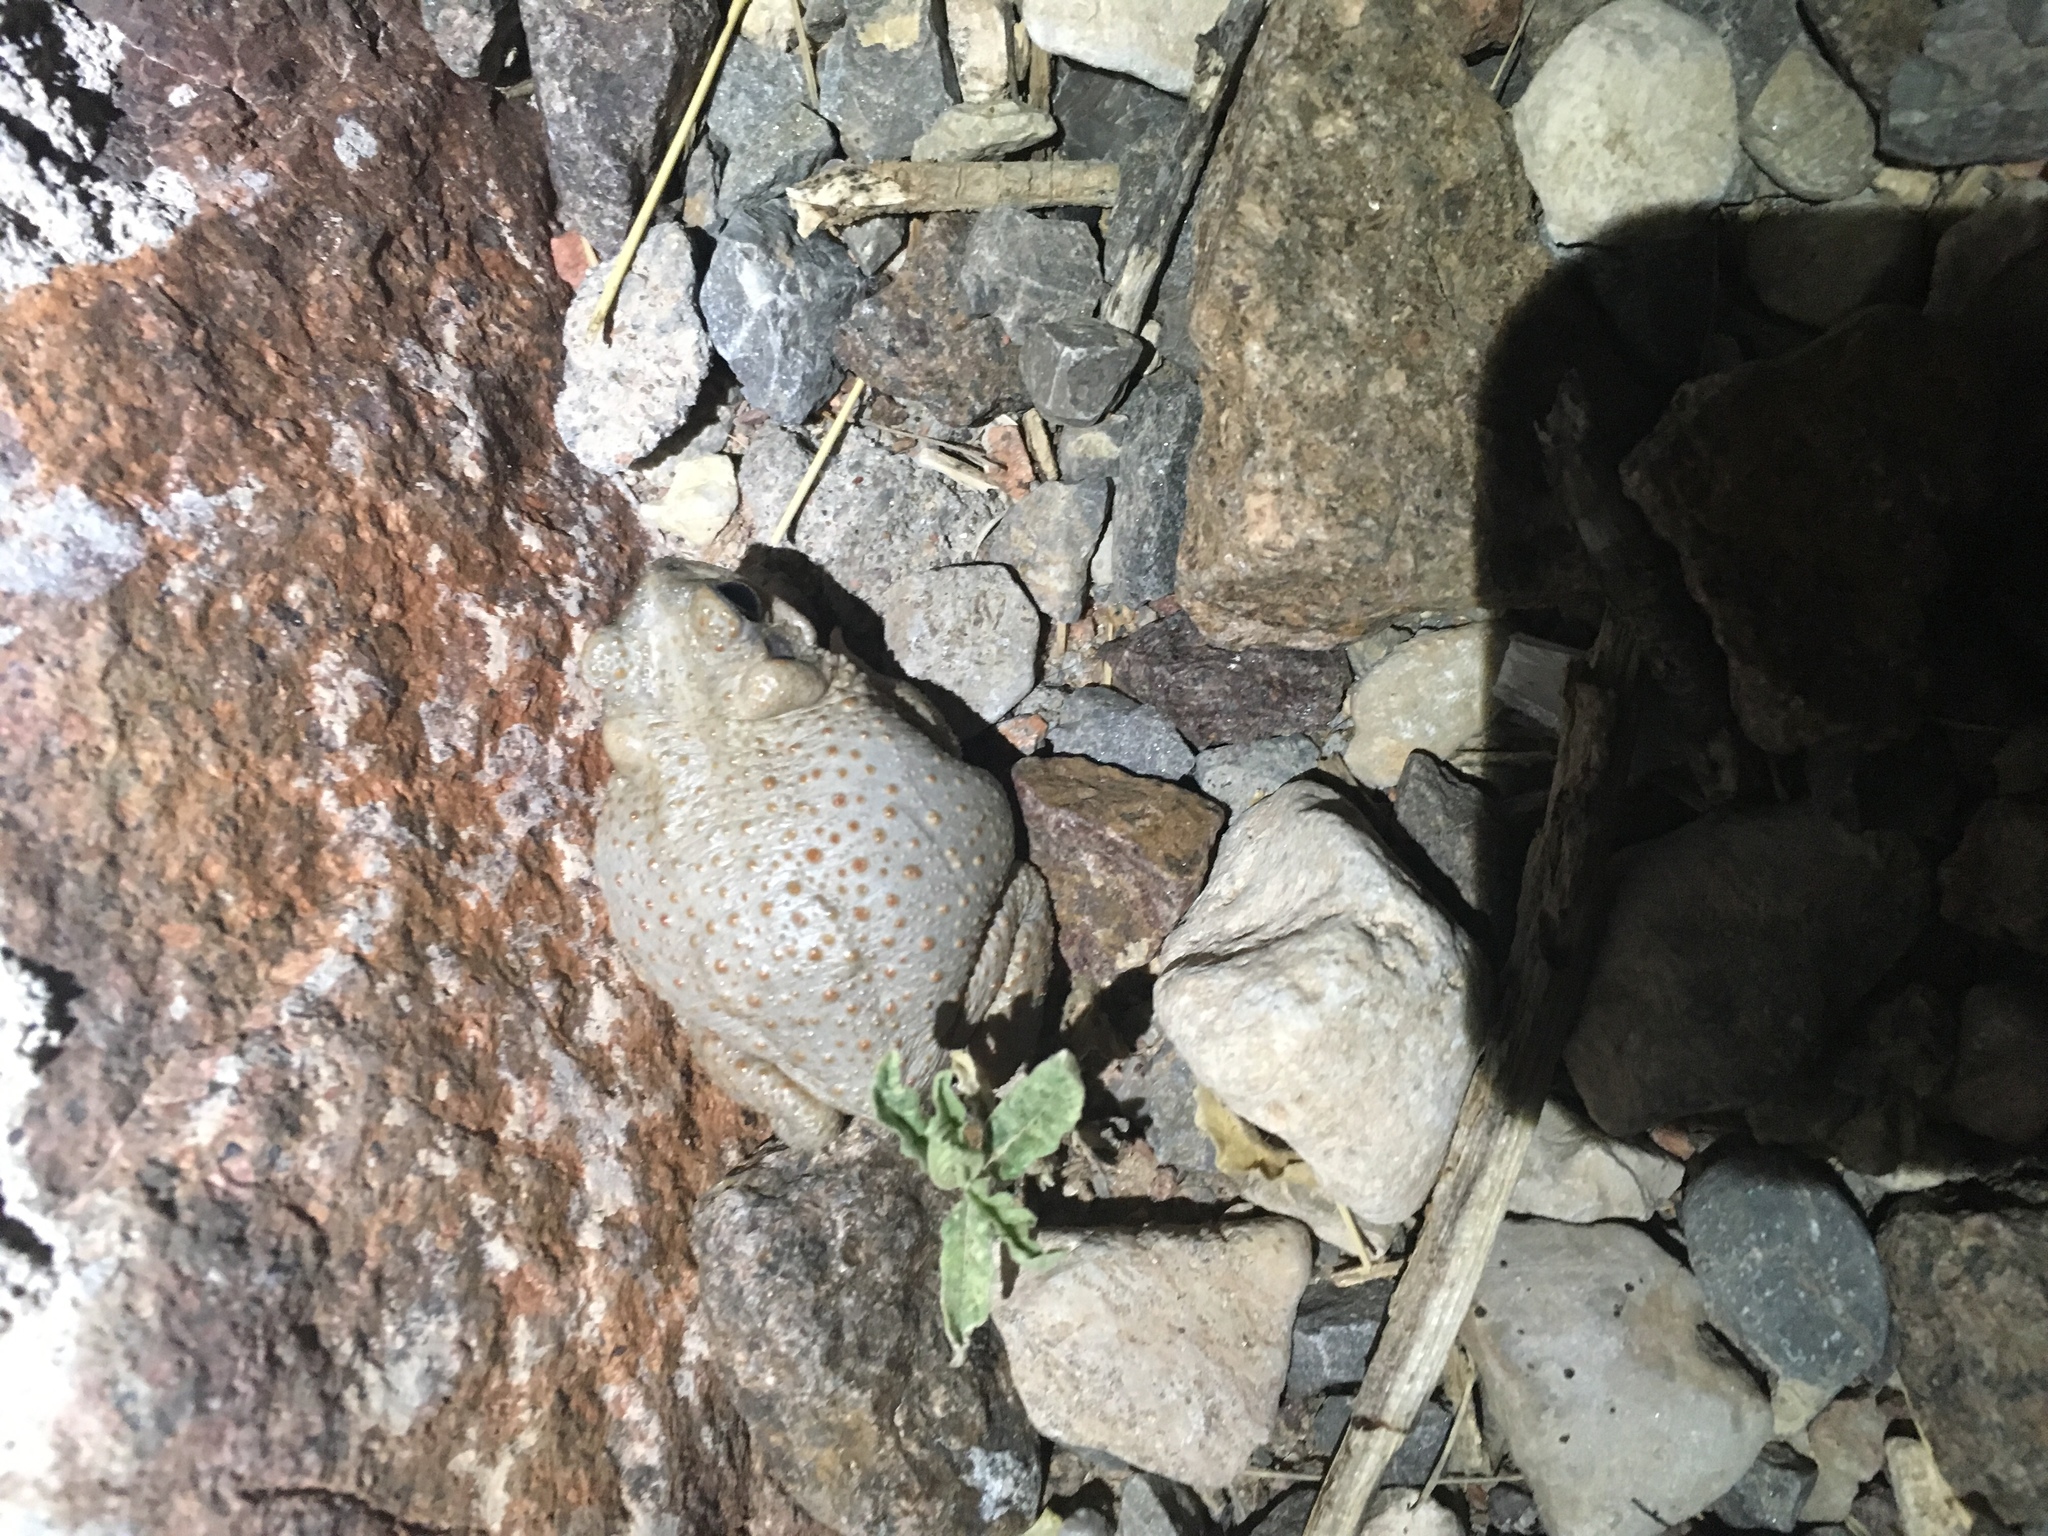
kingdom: Animalia
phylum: Chordata
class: Amphibia
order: Anura
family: Bufonidae
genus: Anaxyrus
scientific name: Anaxyrus punctatus
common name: Red-spotted toad
